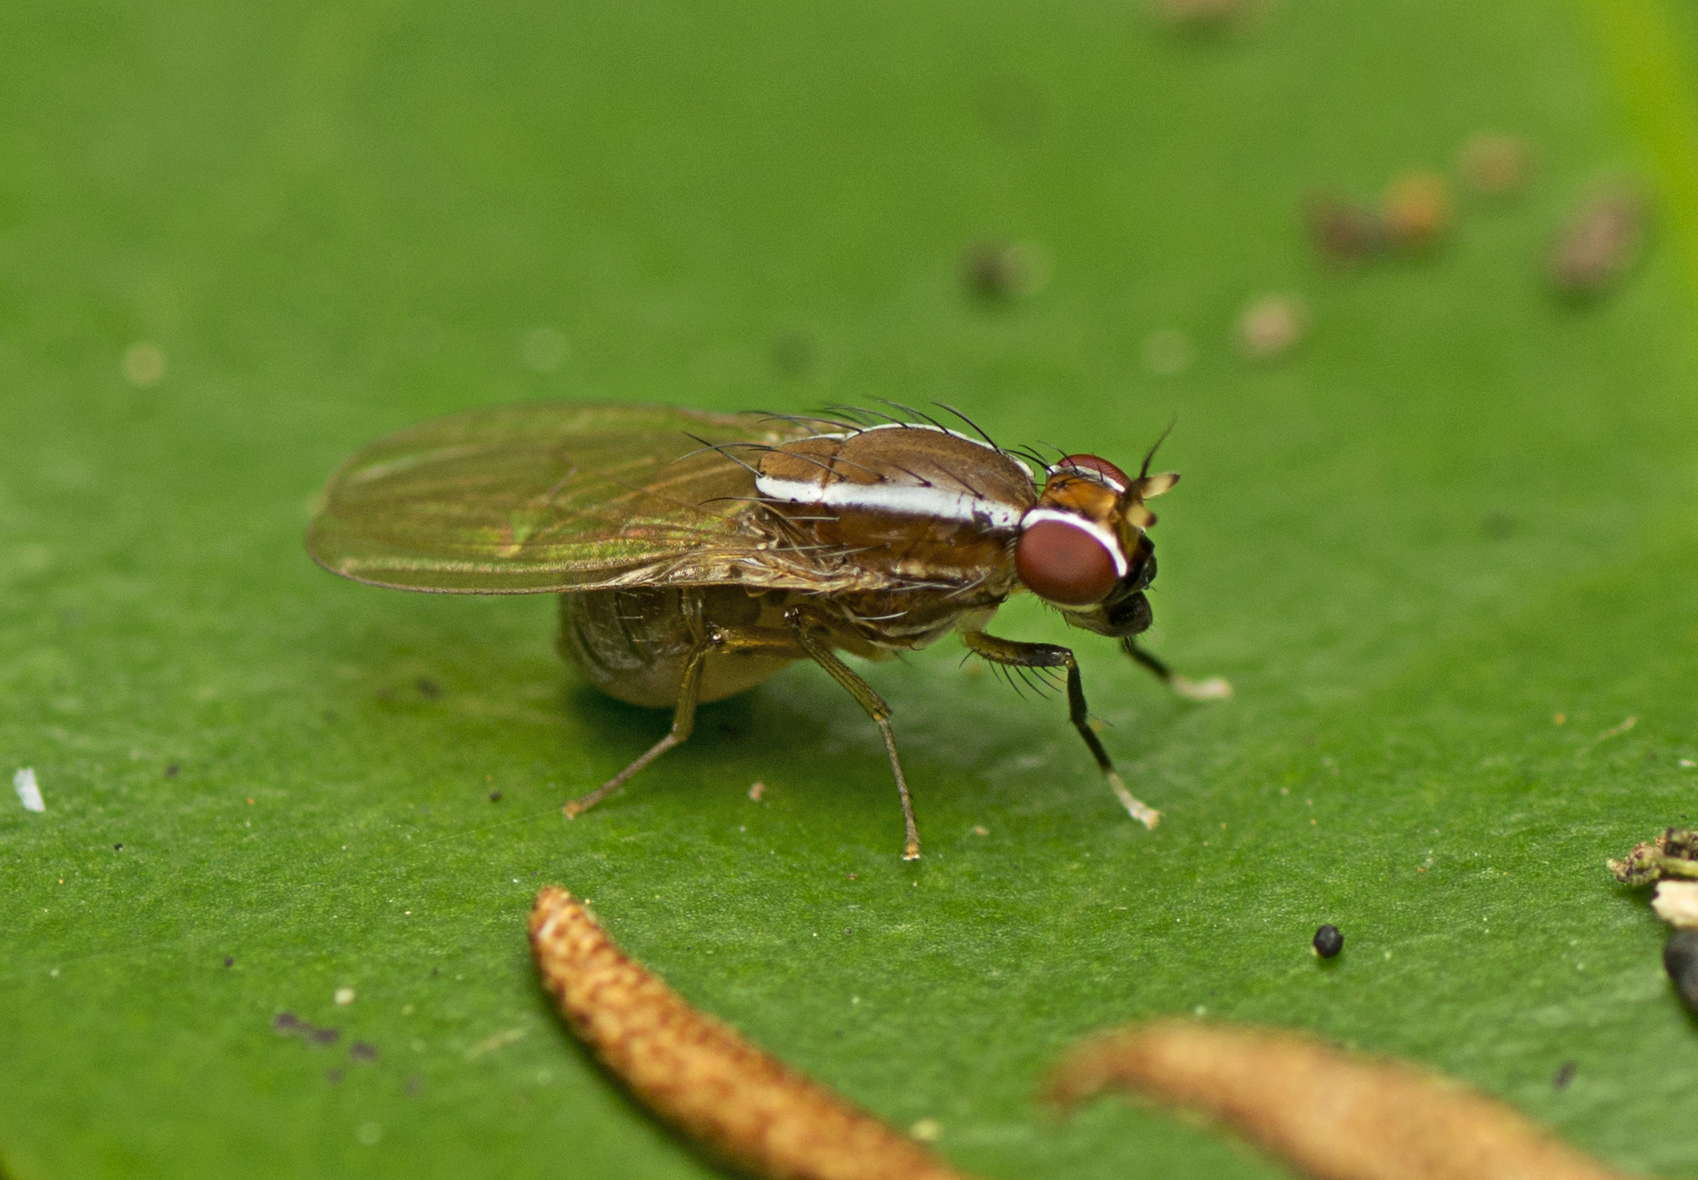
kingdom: Animalia
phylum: Arthropoda
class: Insecta
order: Diptera
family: Lauxaniidae
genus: Poecilohetaerus
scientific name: Poecilohetaerus pinnatus
